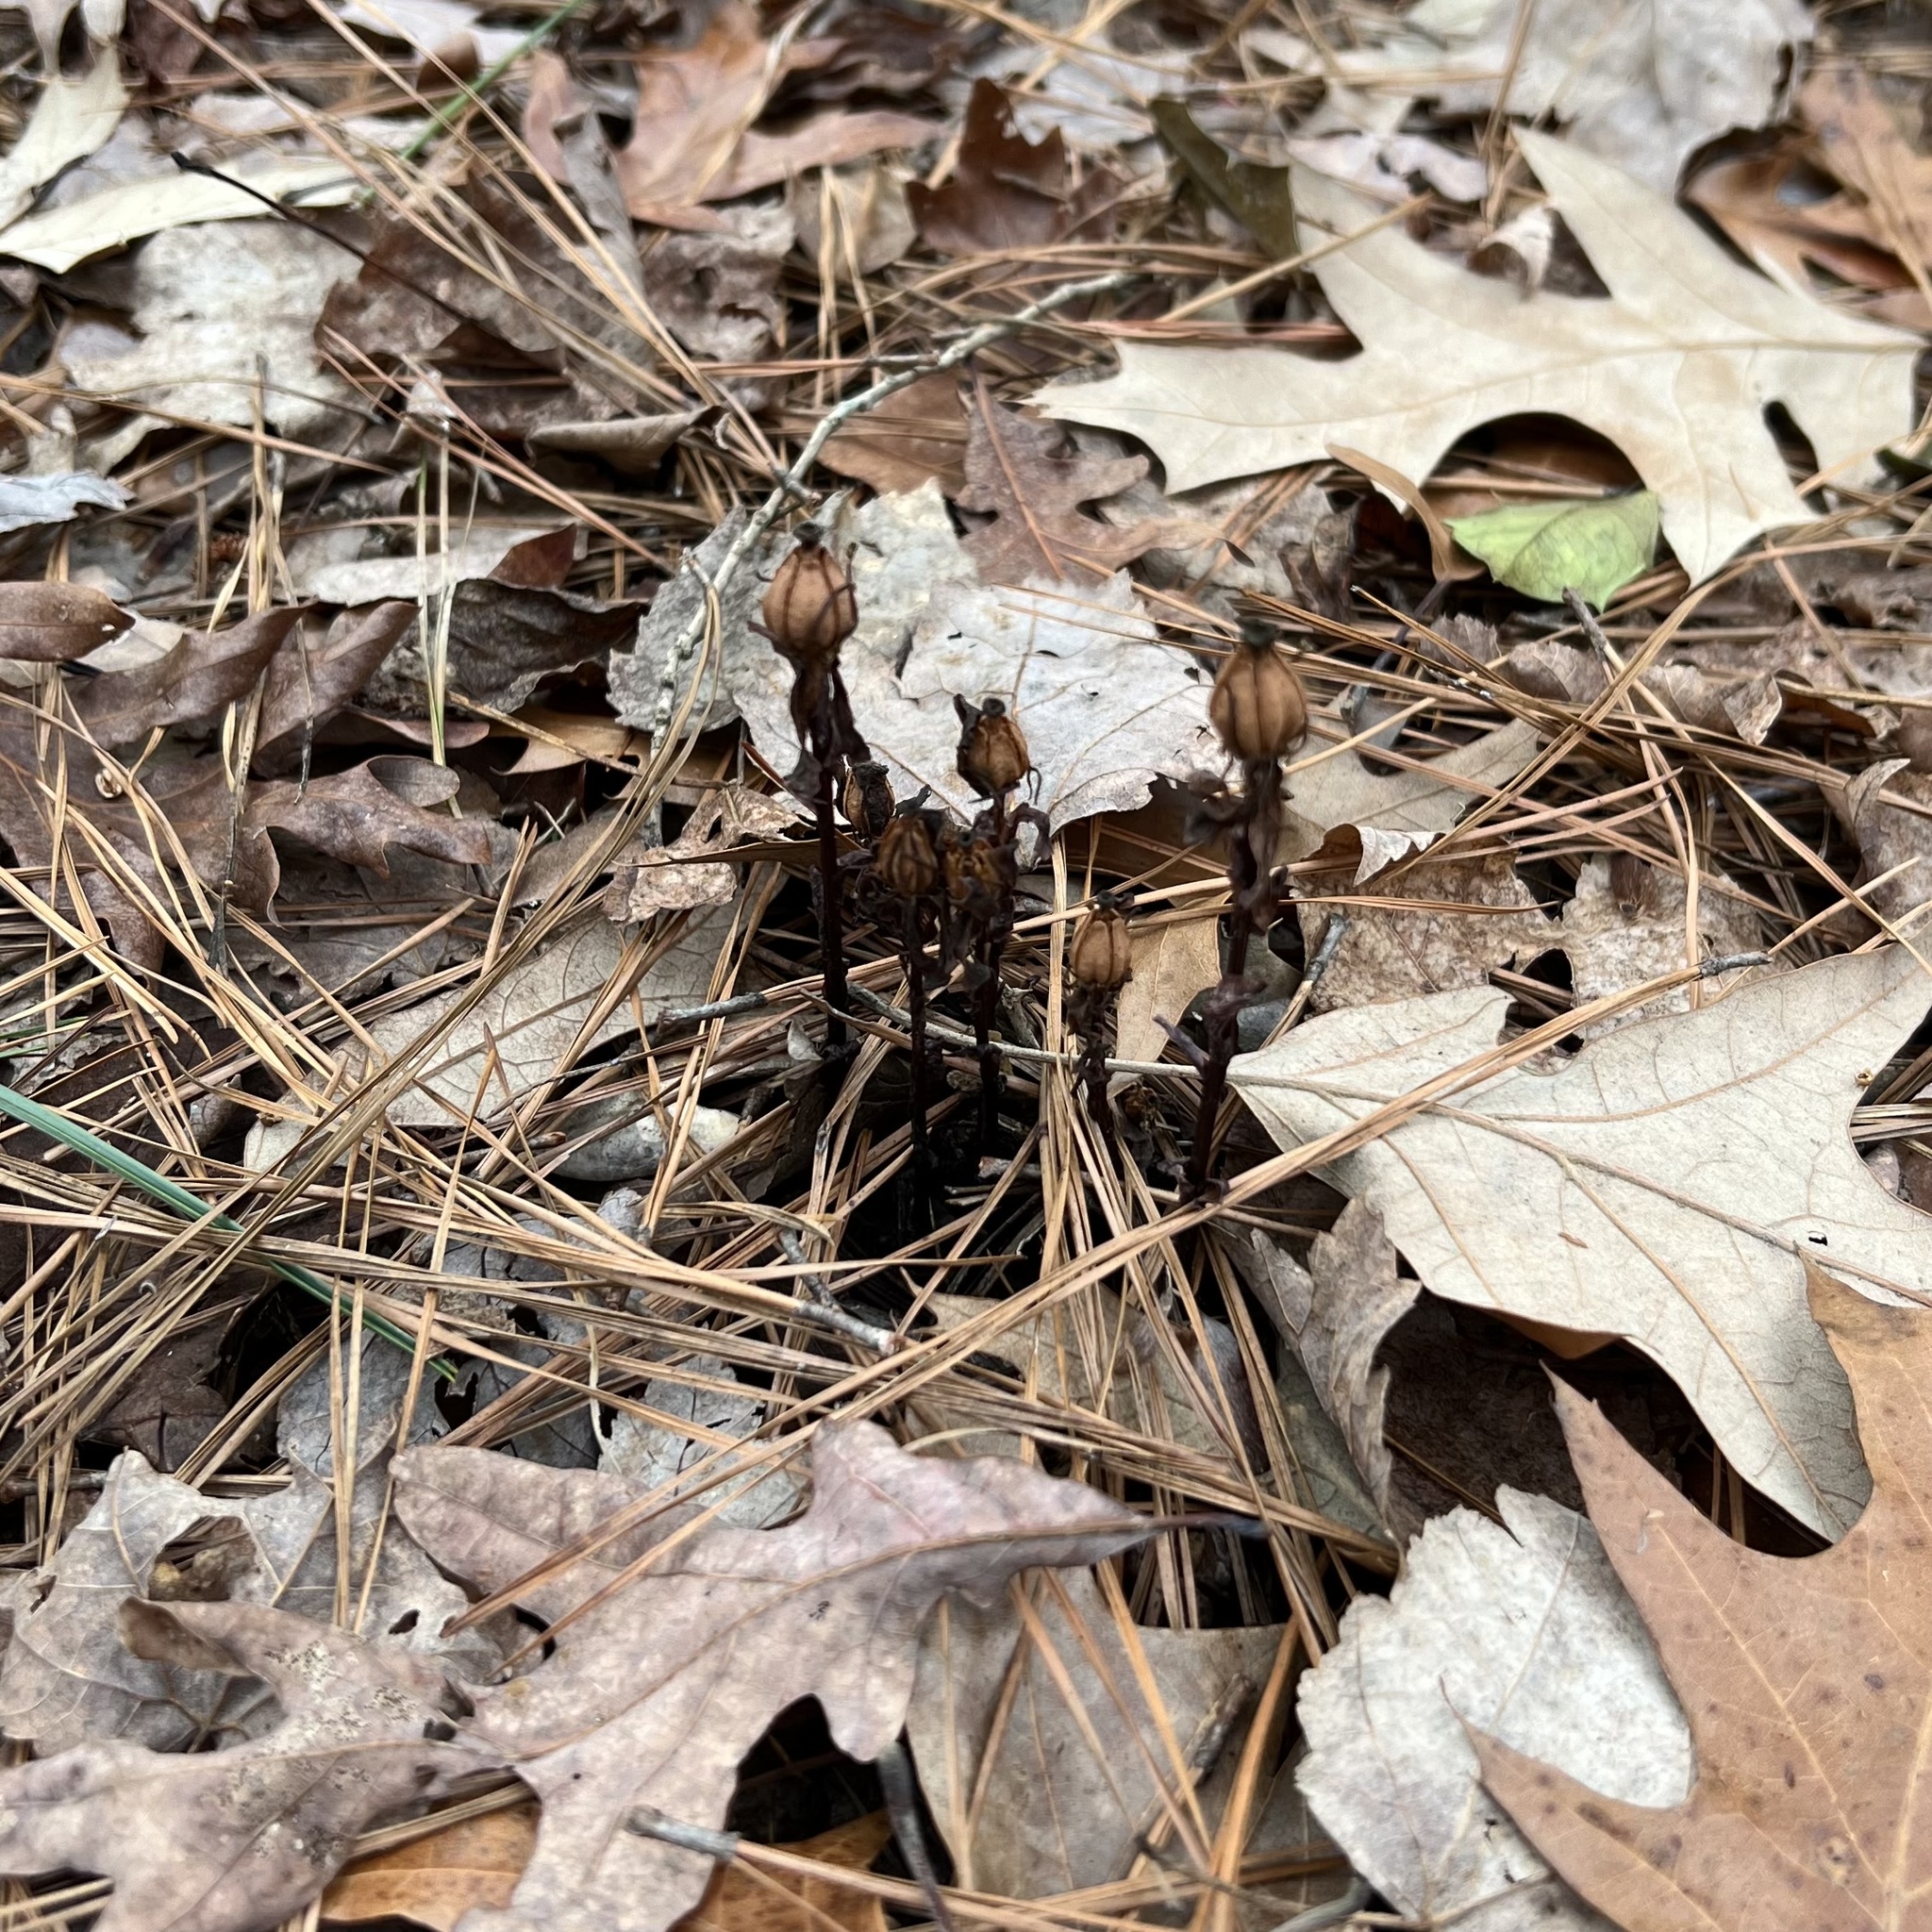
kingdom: Plantae
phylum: Tracheophyta
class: Magnoliopsida
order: Ericales
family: Ericaceae
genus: Monotropa
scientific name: Monotropa uniflora
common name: Convulsion root
